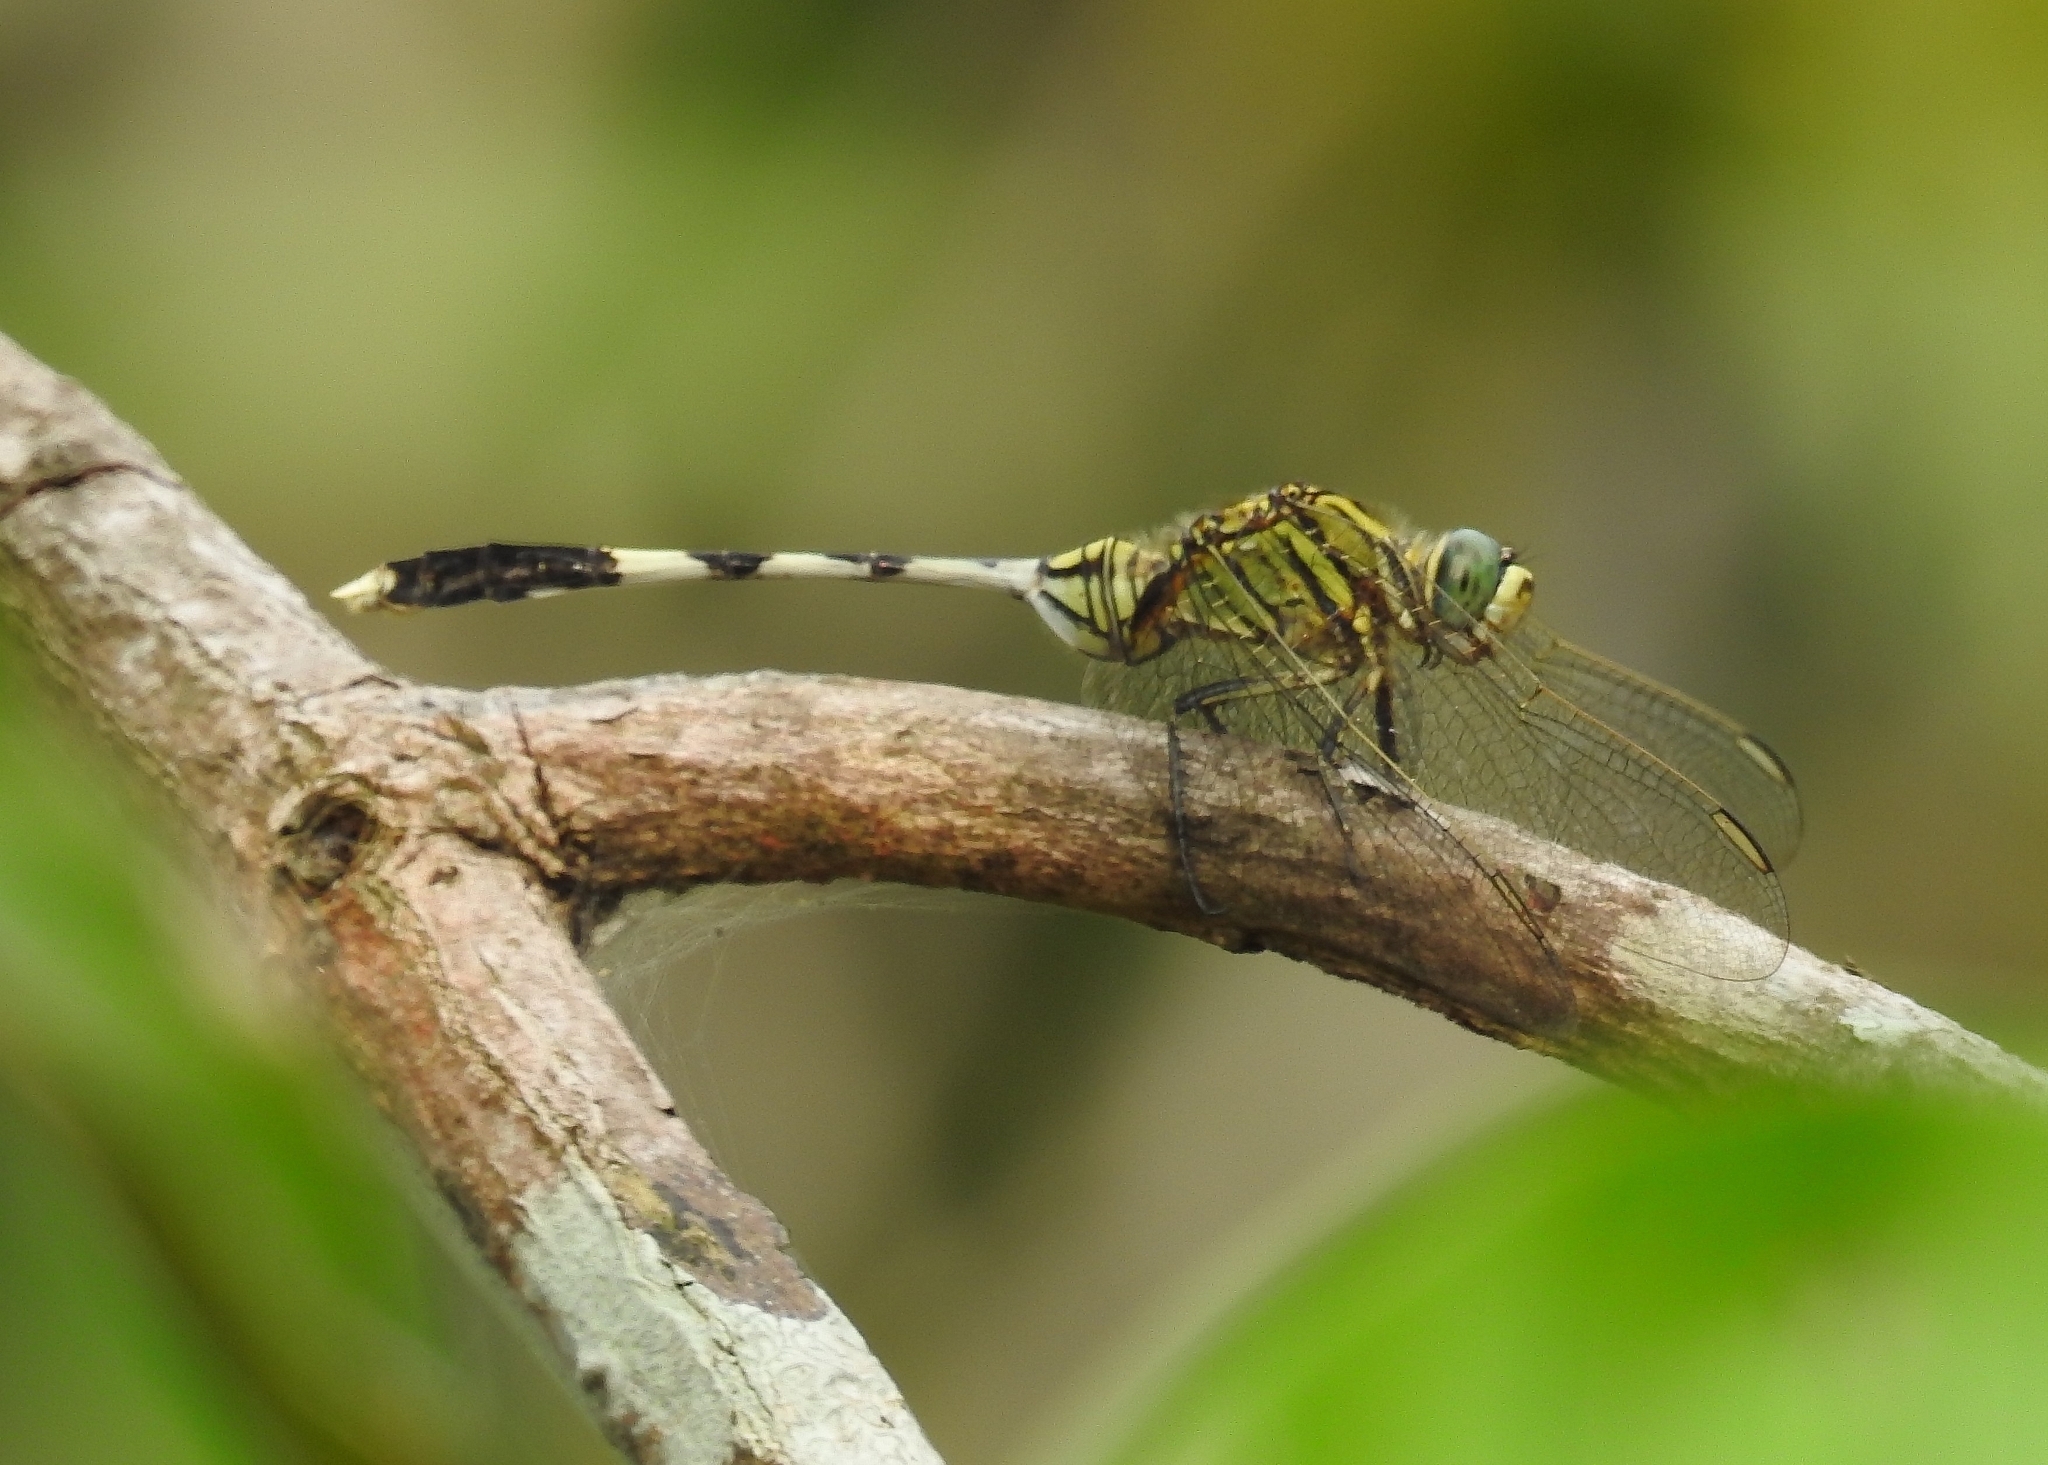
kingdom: Animalia
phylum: Arthropoda
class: Insecta
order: Odonata
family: Libellulidae
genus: Orthetrum
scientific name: Orthetrum sabina
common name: Slender skimmer
